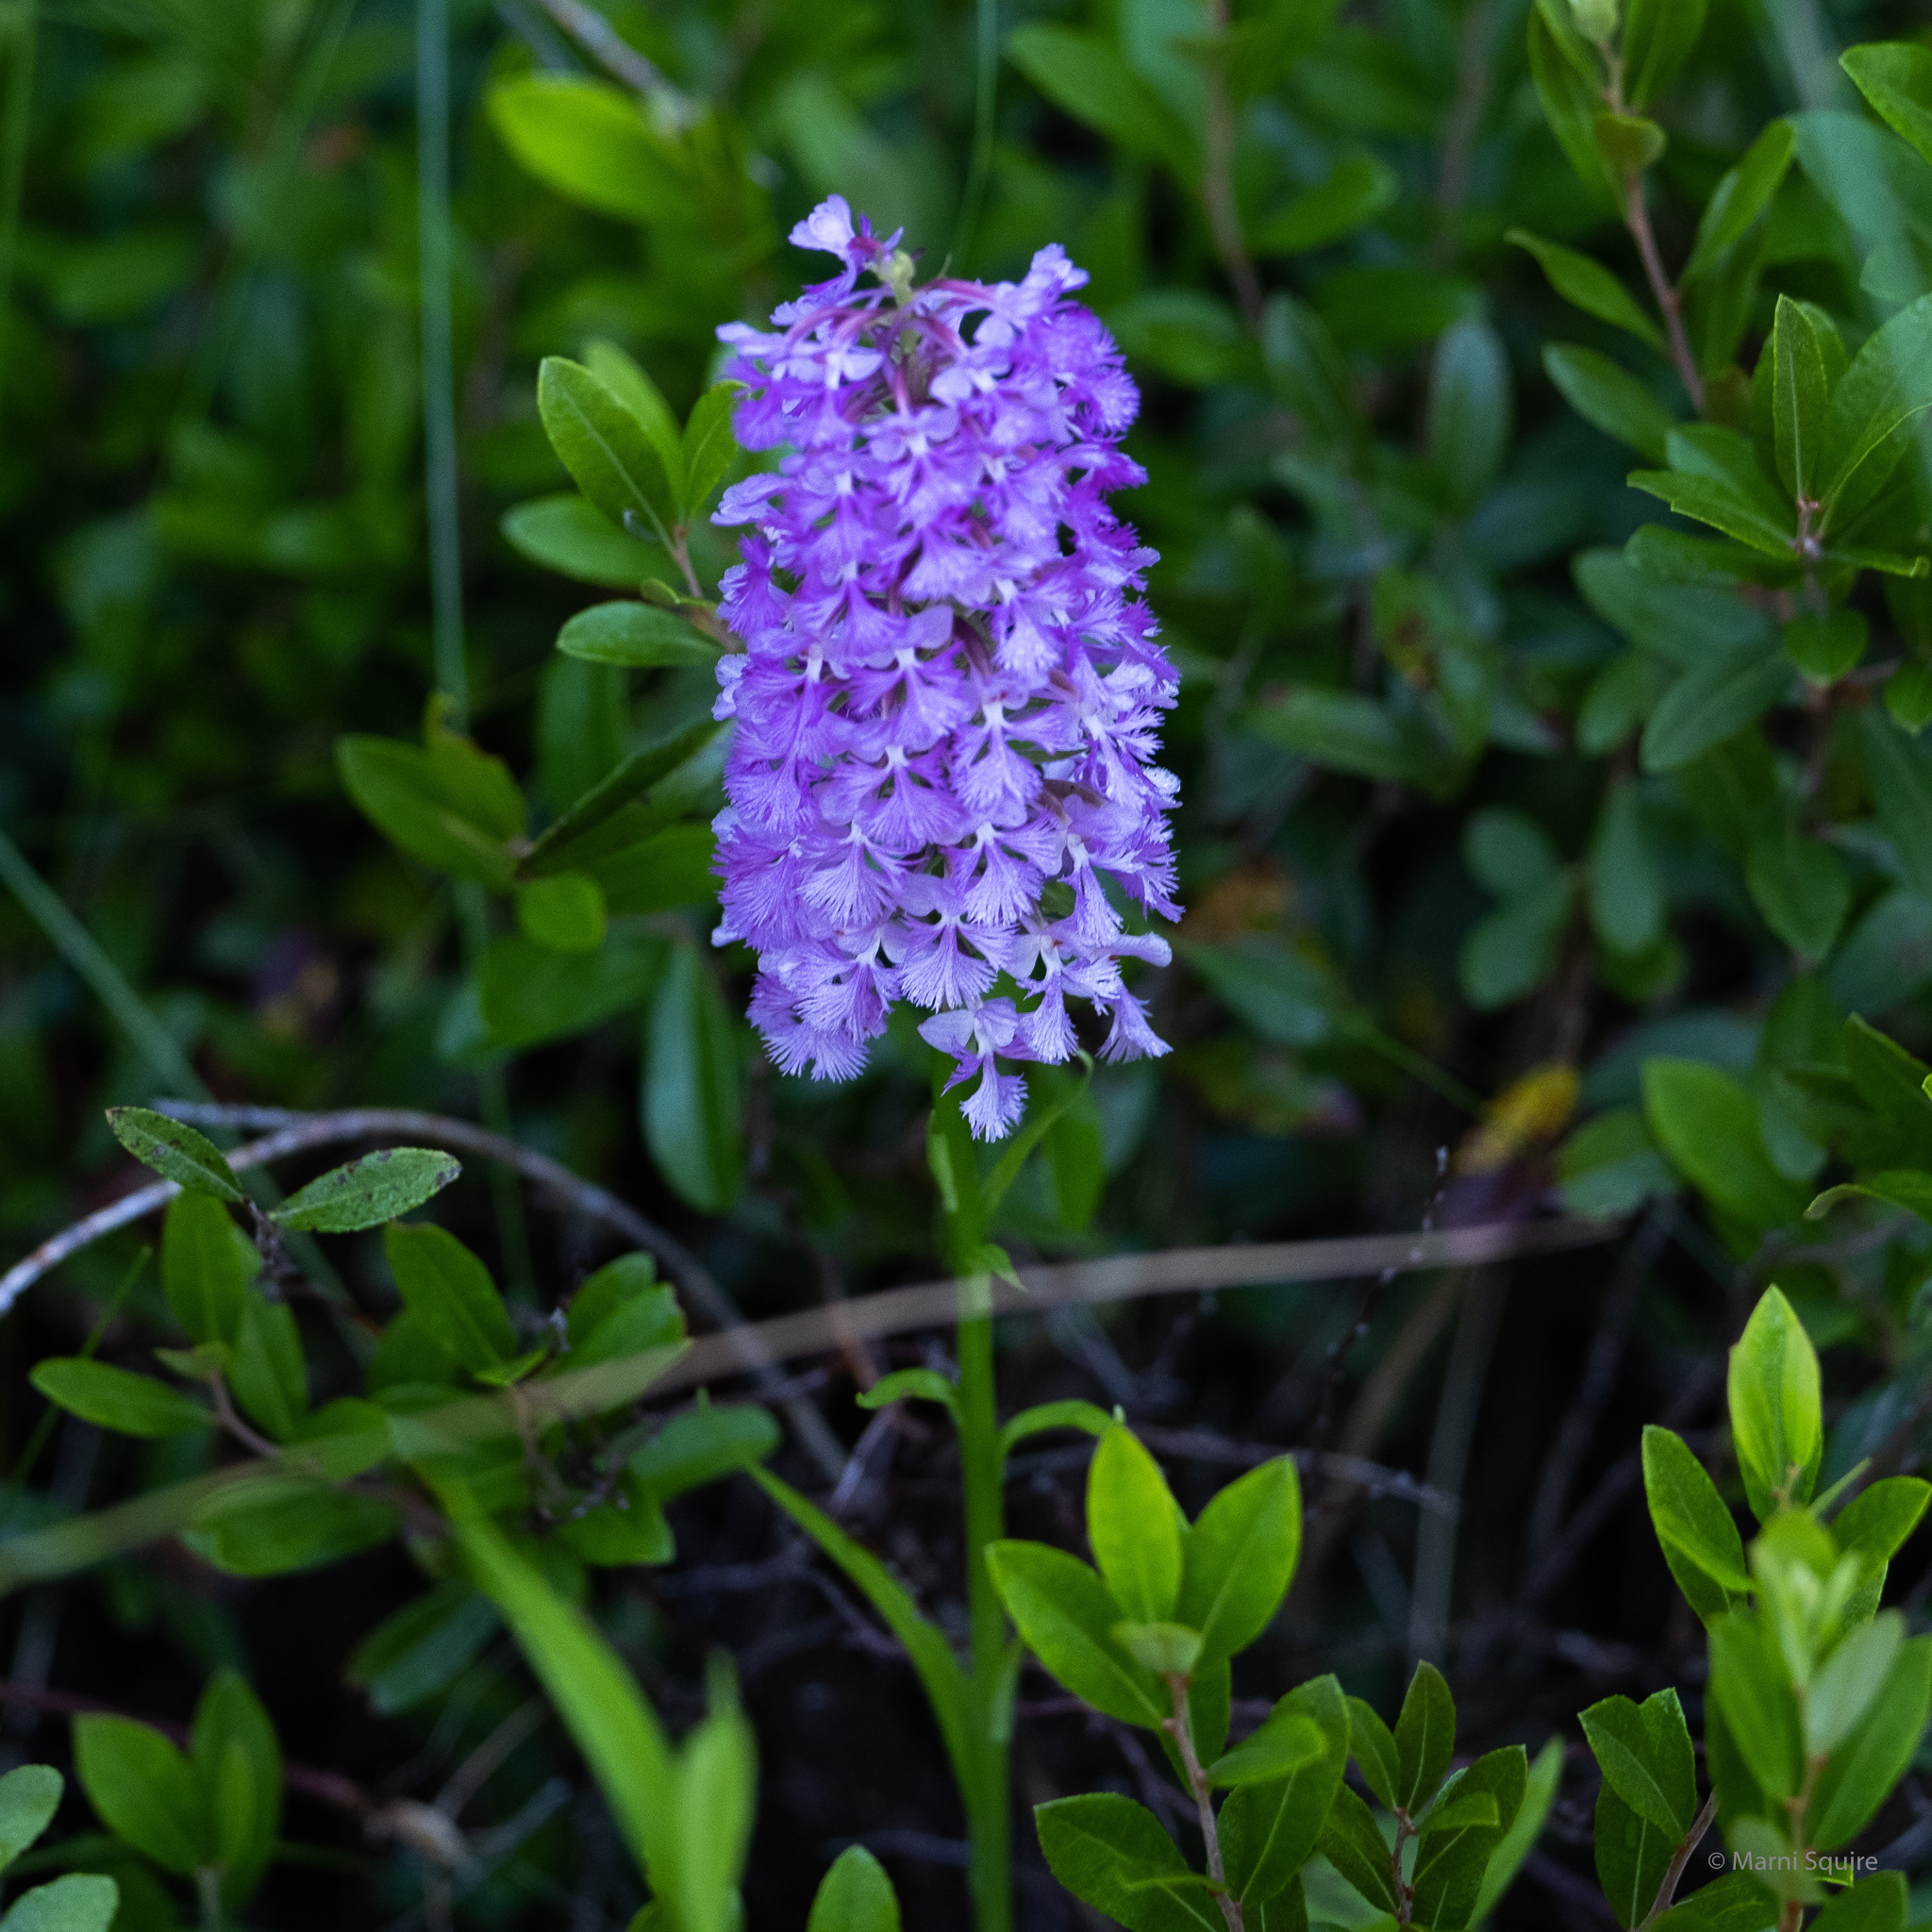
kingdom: Plantae
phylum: Tracheophyta
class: Liliopsida
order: Asparagales
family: Orchidaceae
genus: Platanthera
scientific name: Platanthera psycodes
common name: Lesser purple fringed orchid
